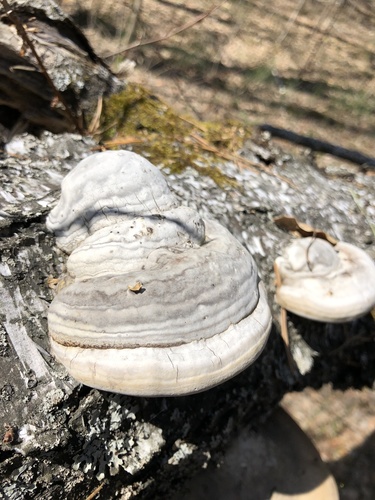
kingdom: Fungi
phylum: Basidiomycota
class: Agaricomycetes
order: Polyporales
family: Polyporaceae
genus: Fomes
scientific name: Fomes fomentarius
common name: Hoof fungus
